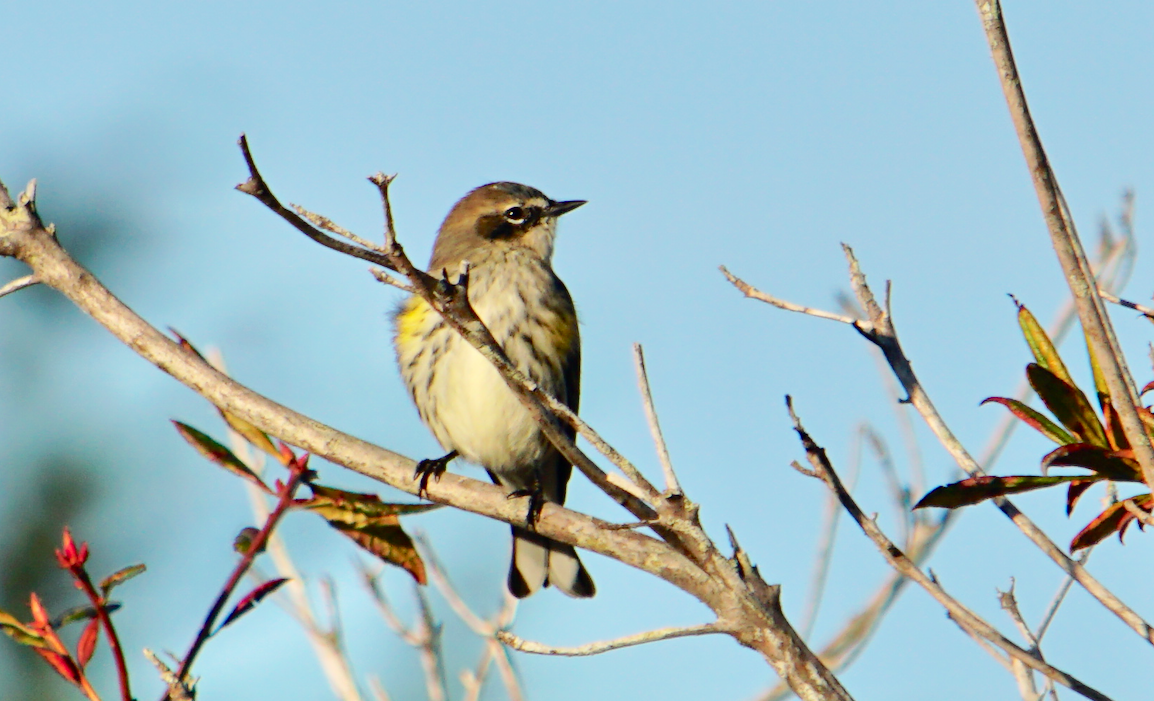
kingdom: Animalia
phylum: Chordata
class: Aves
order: Passeriformes
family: Parulidae
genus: Setophaga
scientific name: Setophaga coronata
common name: Myrtle warbler
